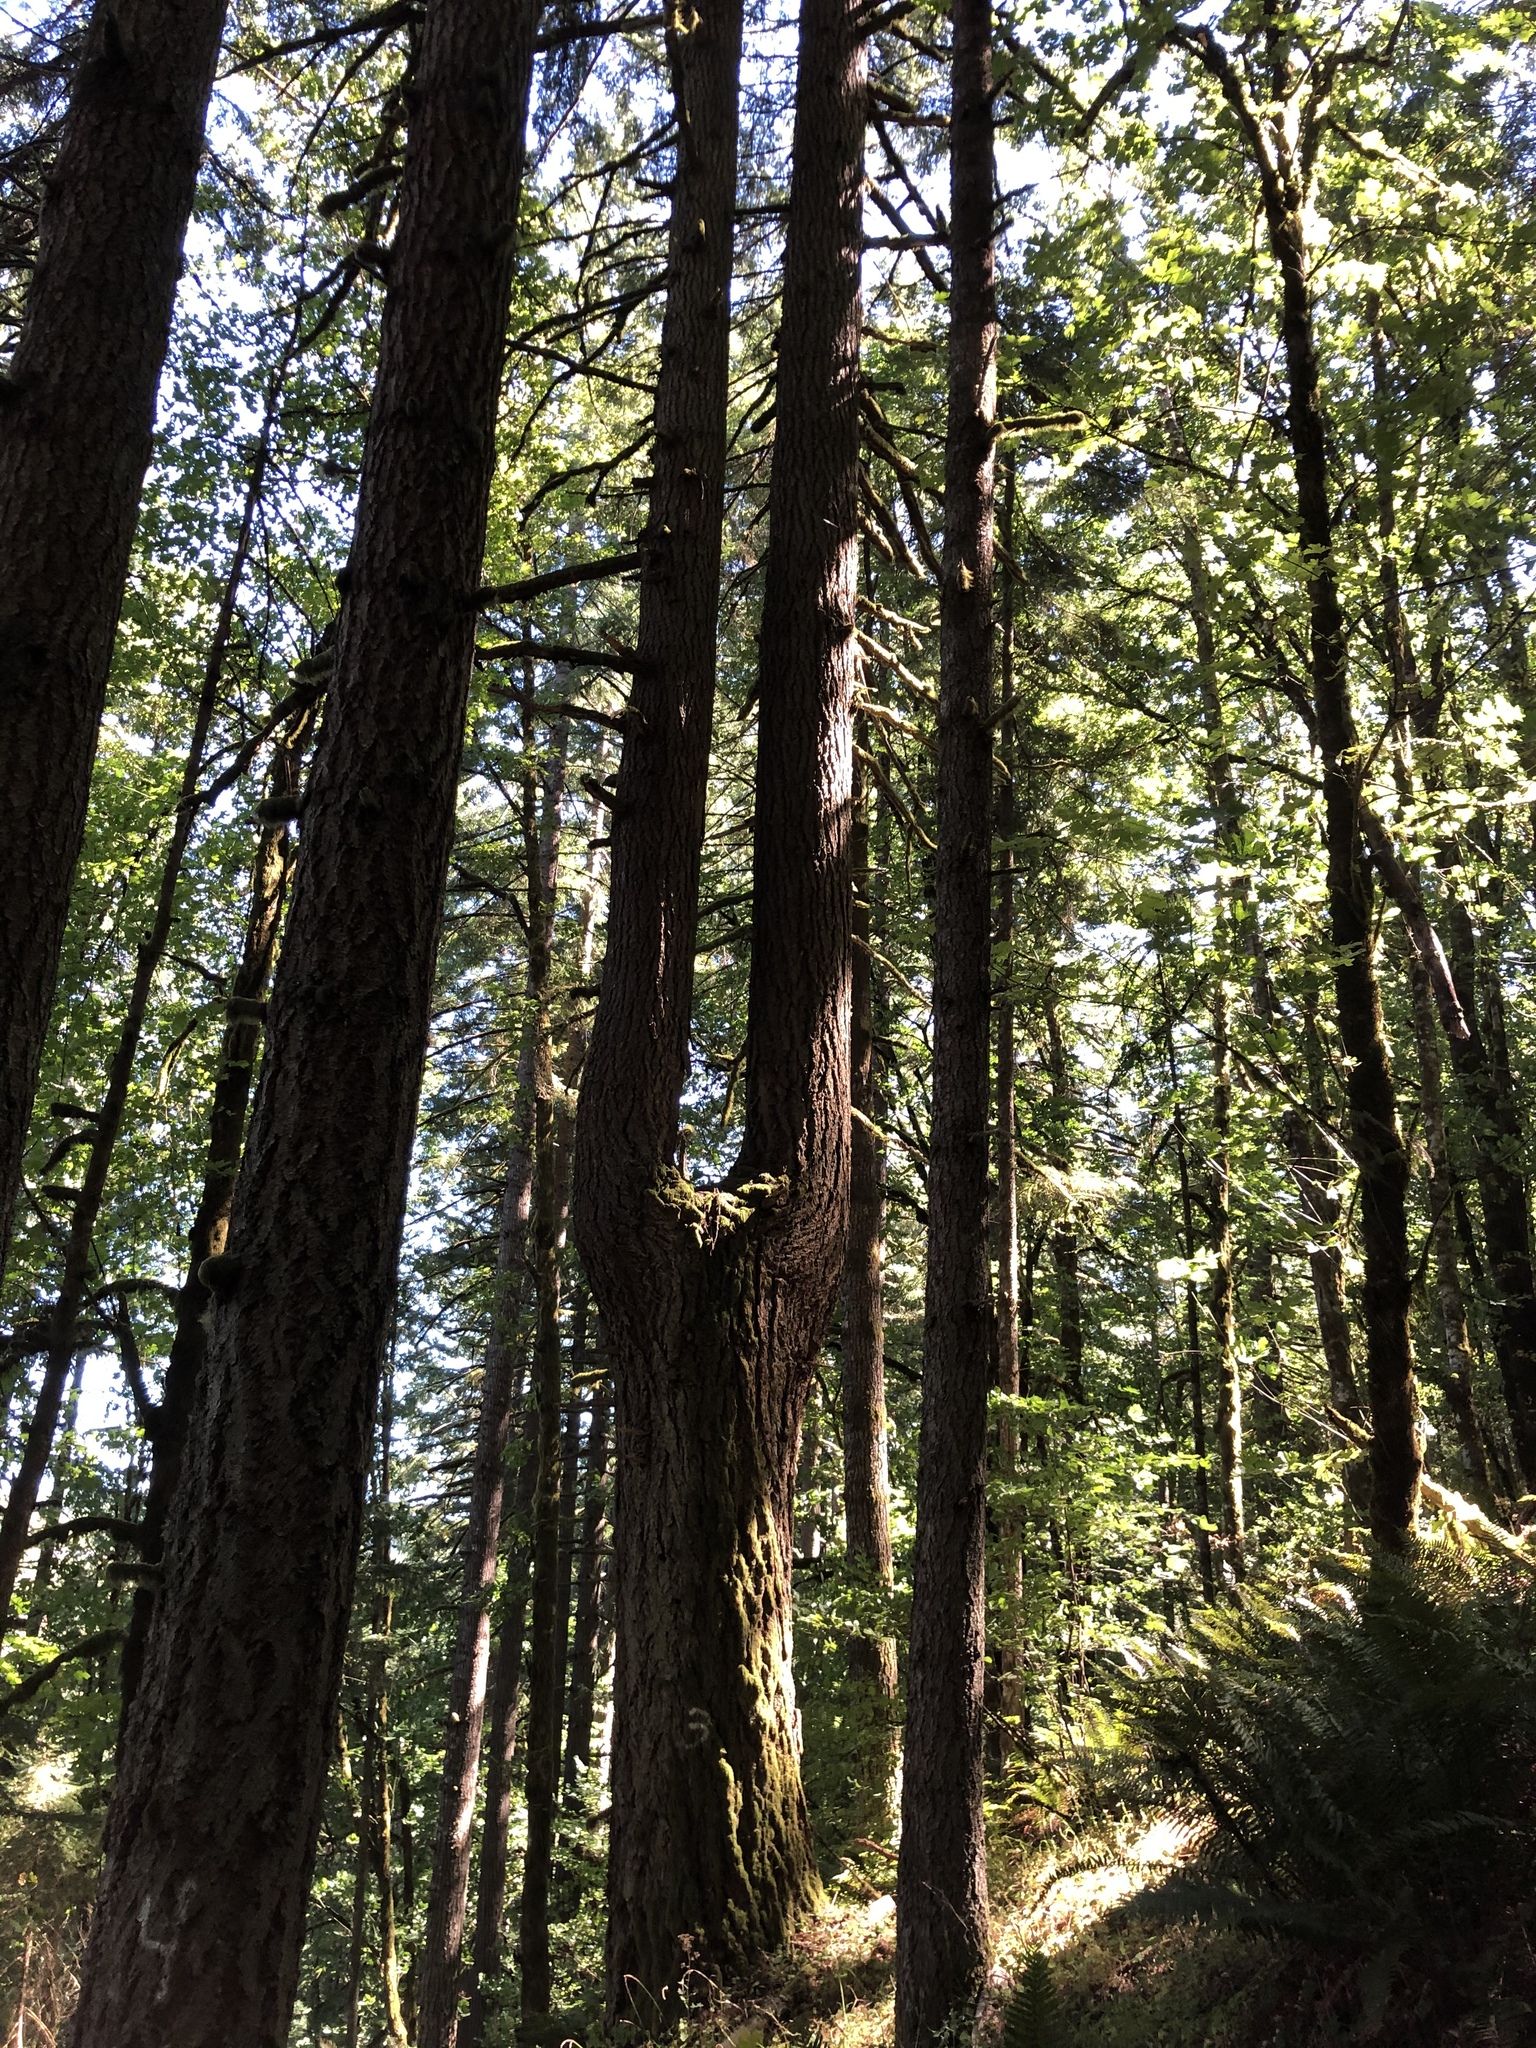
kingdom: Plantae
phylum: Tracheophyta
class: Pinopsida
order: Pinales
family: Pinaceae
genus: Pseudotsuga
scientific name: Pseudotsuga menziesii
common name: Douglas fir
